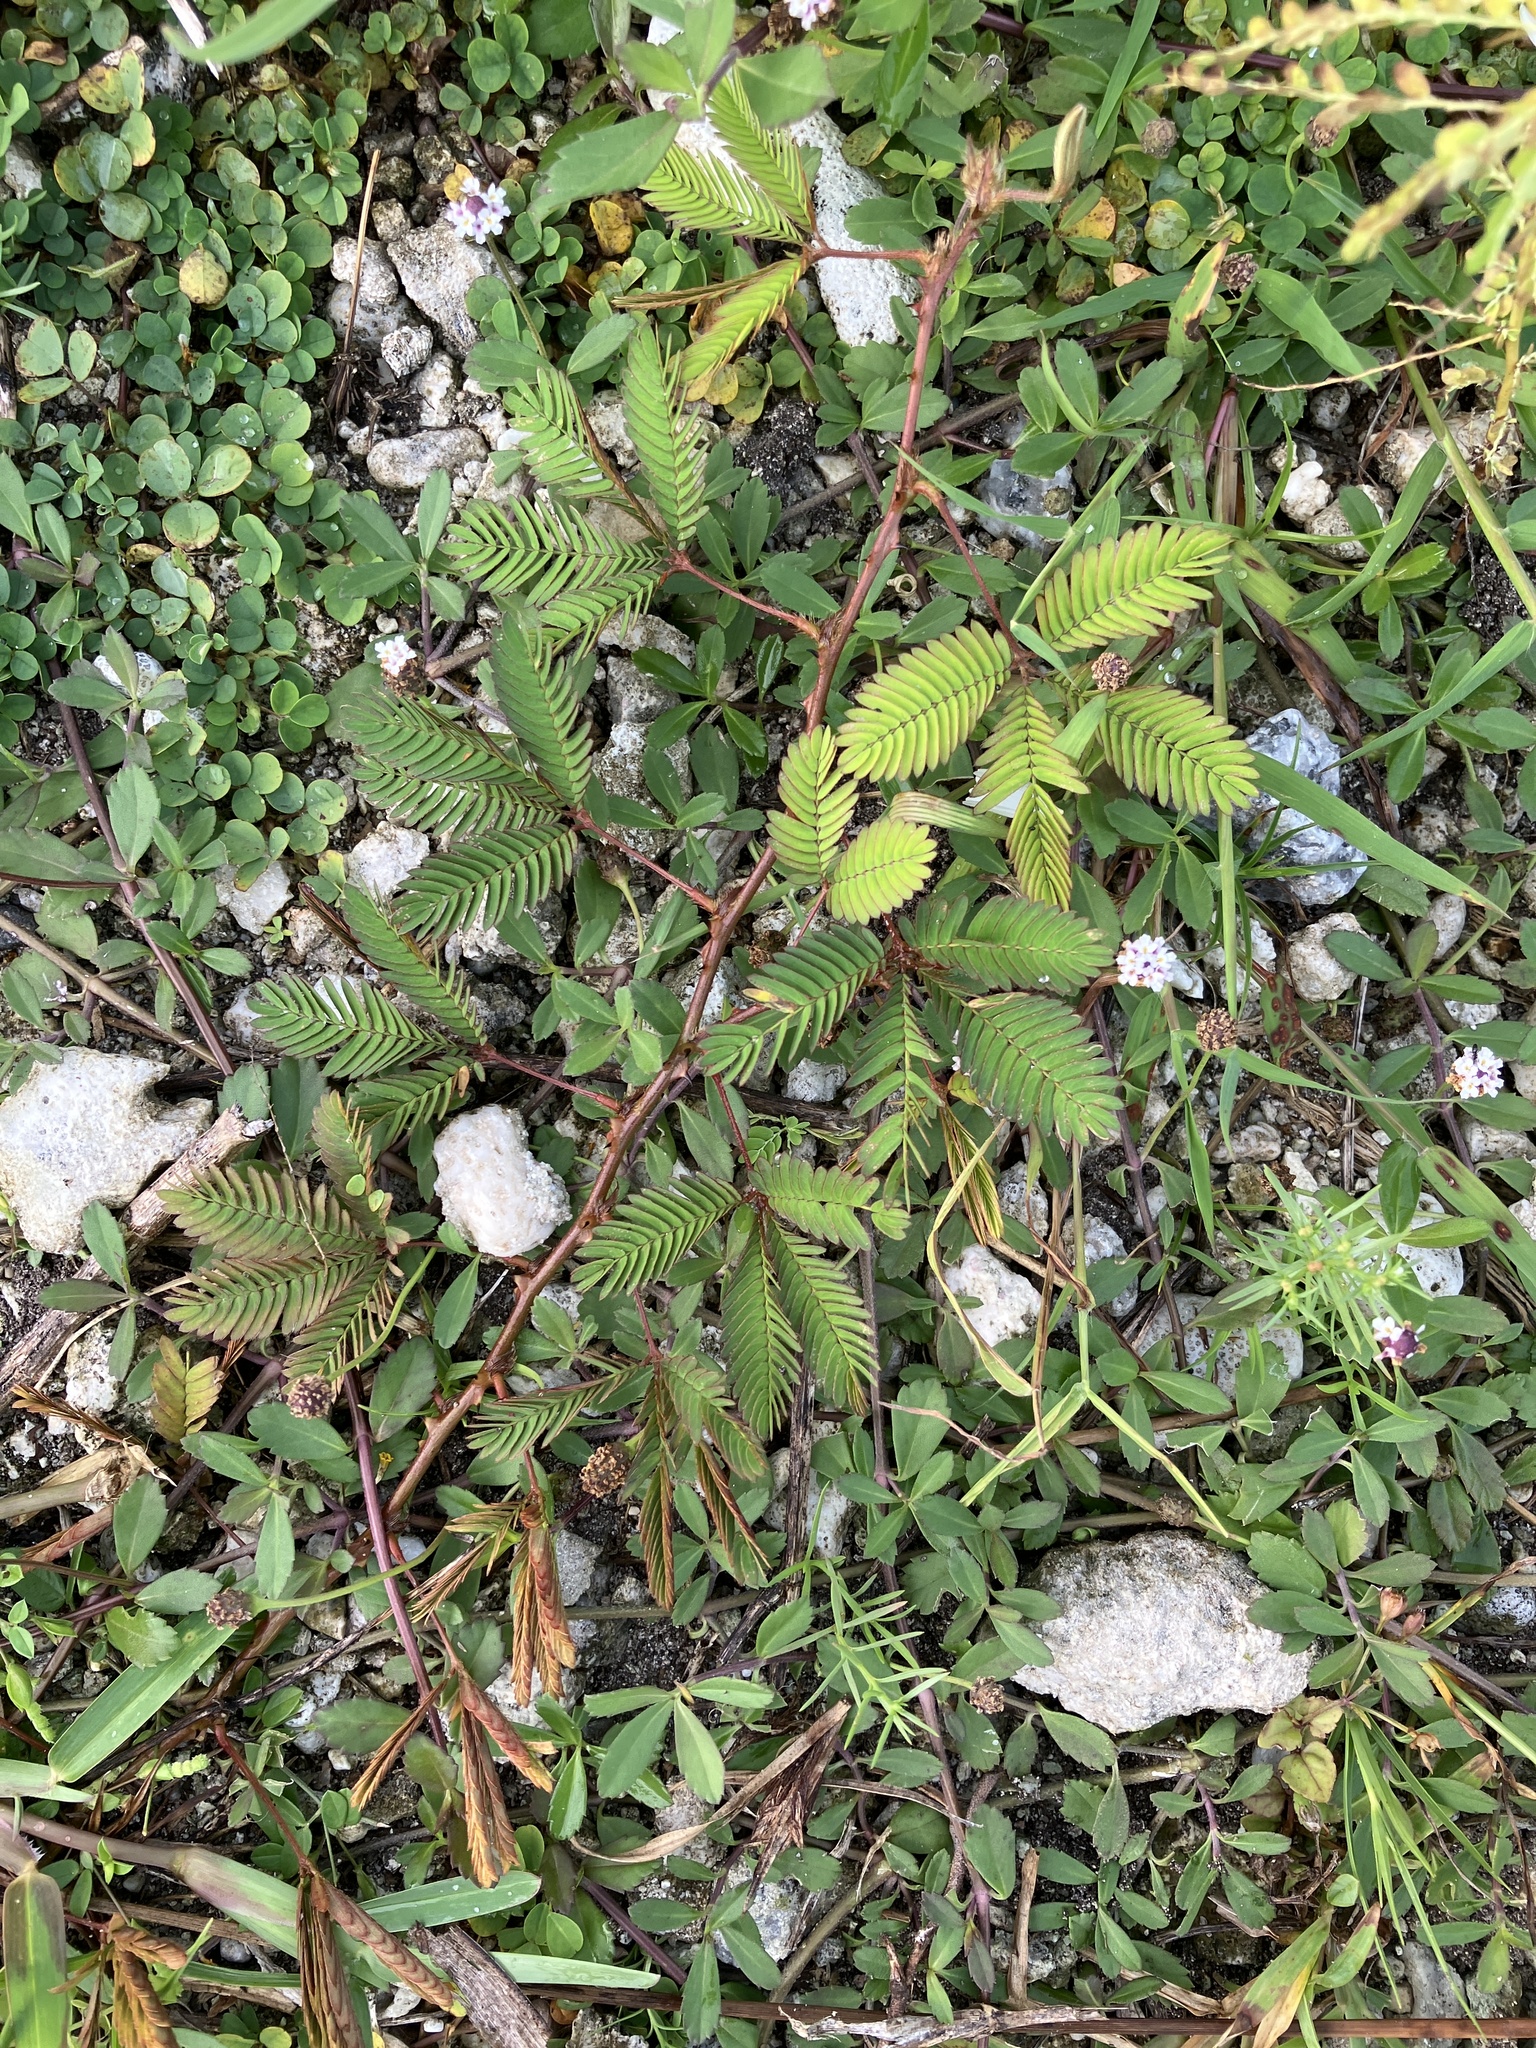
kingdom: Plantae
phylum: Tracheophyta
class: Magnoliopsida
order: Fabales
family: Fabaceae
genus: Mimosa
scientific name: Mimosa pudica
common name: Sensitive plant
